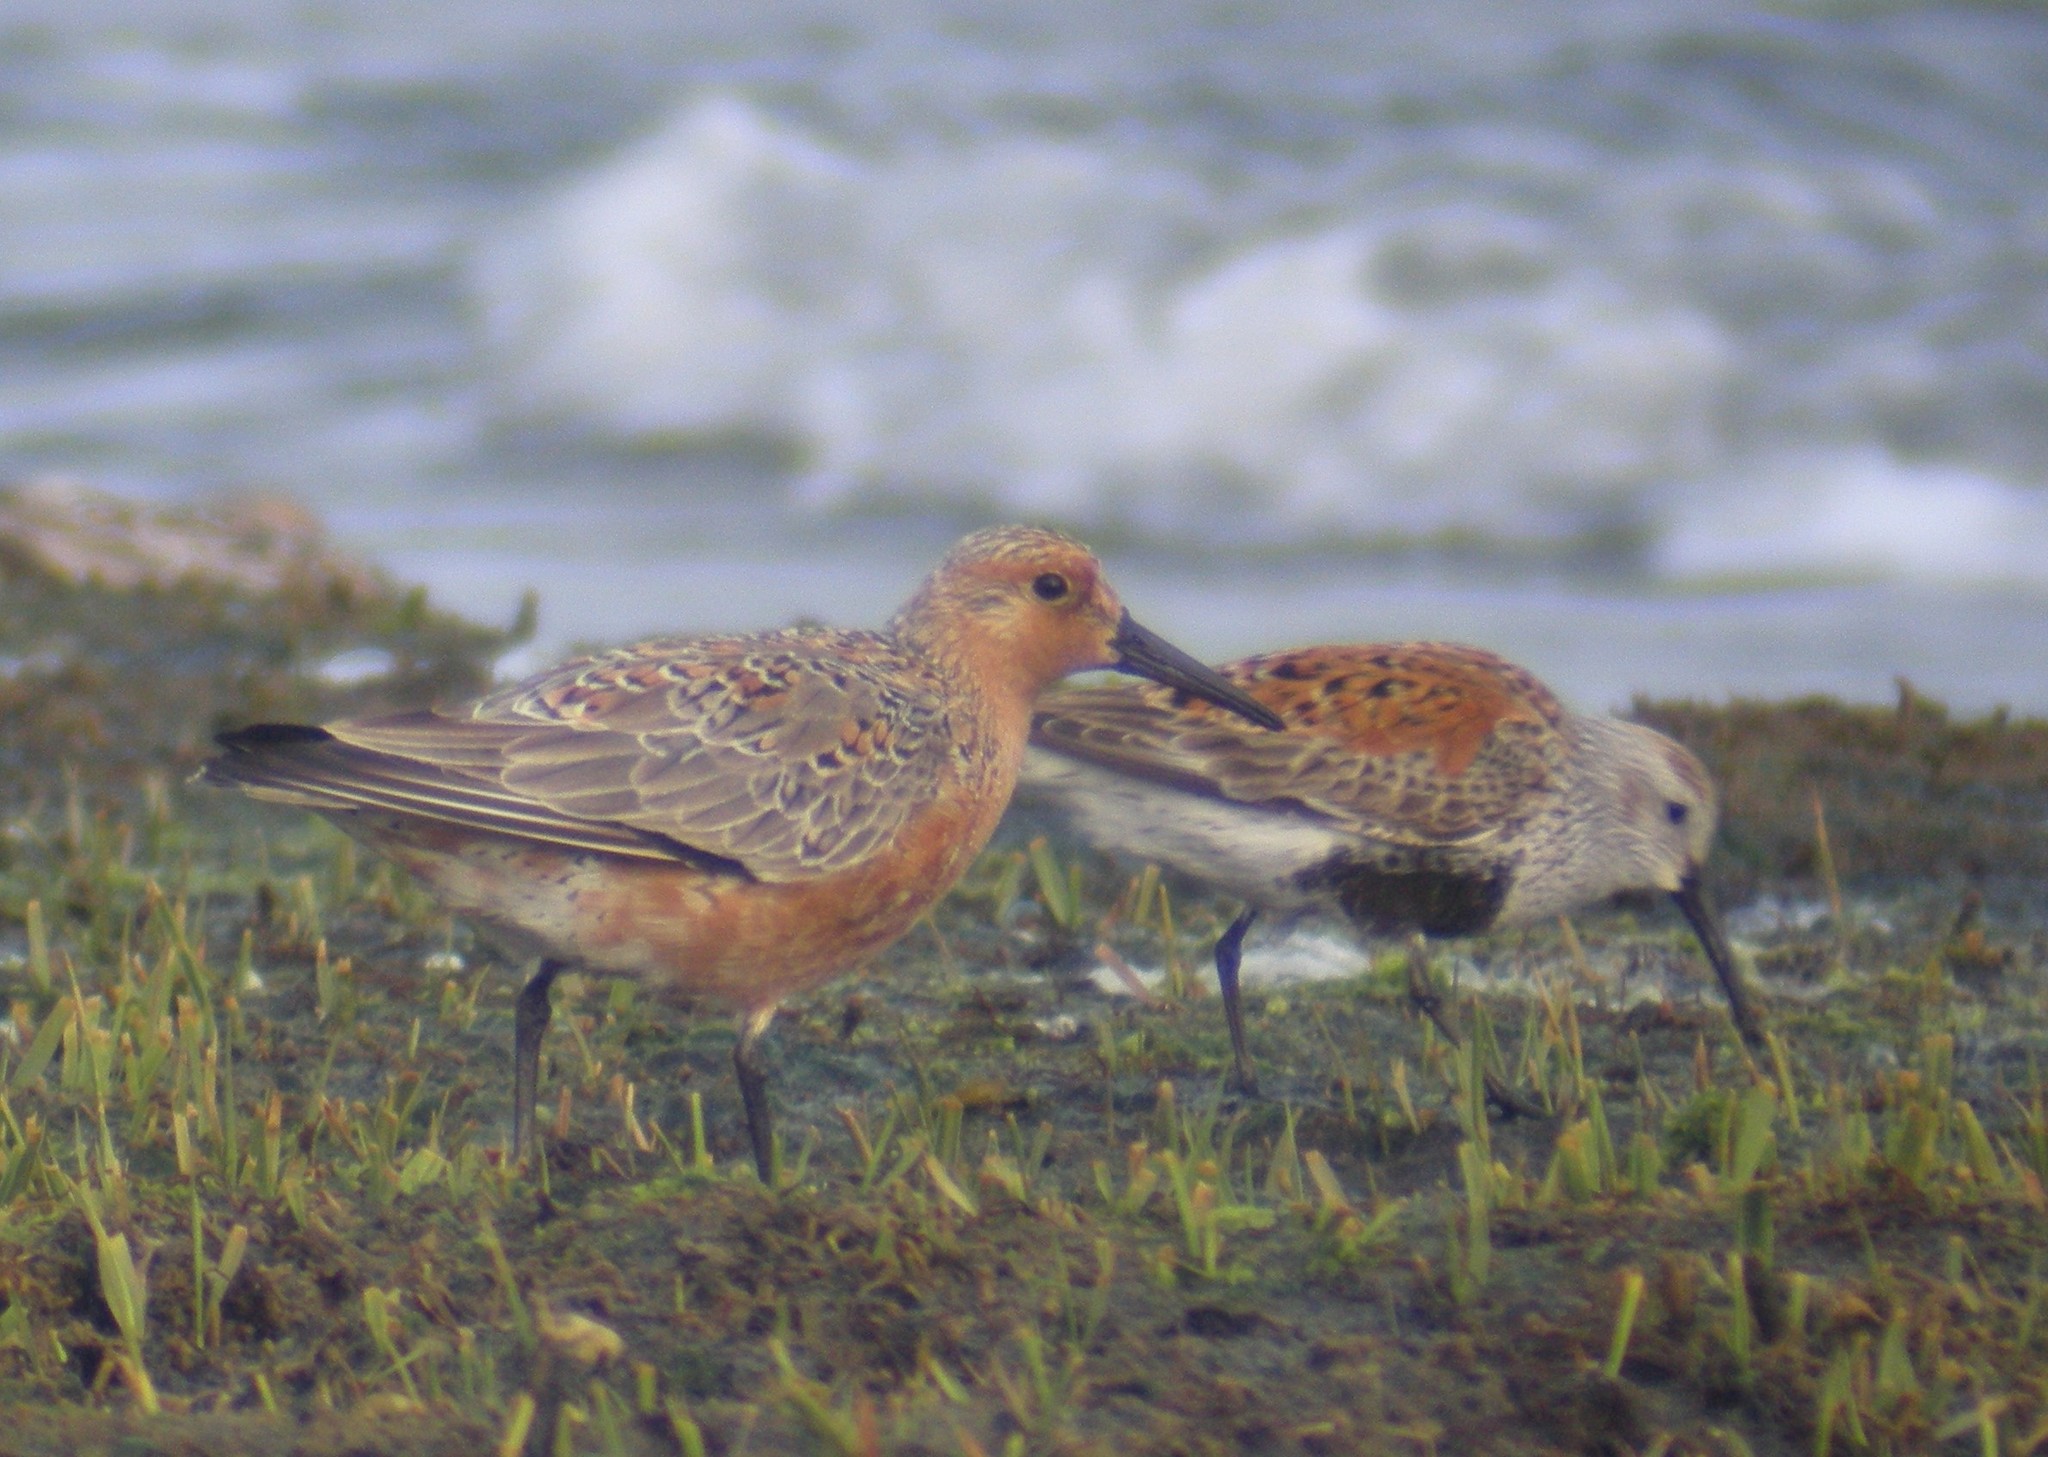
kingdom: Animalia
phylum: Chordata
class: Aves
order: Charadriiformes
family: Scolopacidae
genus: Calidris
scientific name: Calidris alpina
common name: Dunlin
